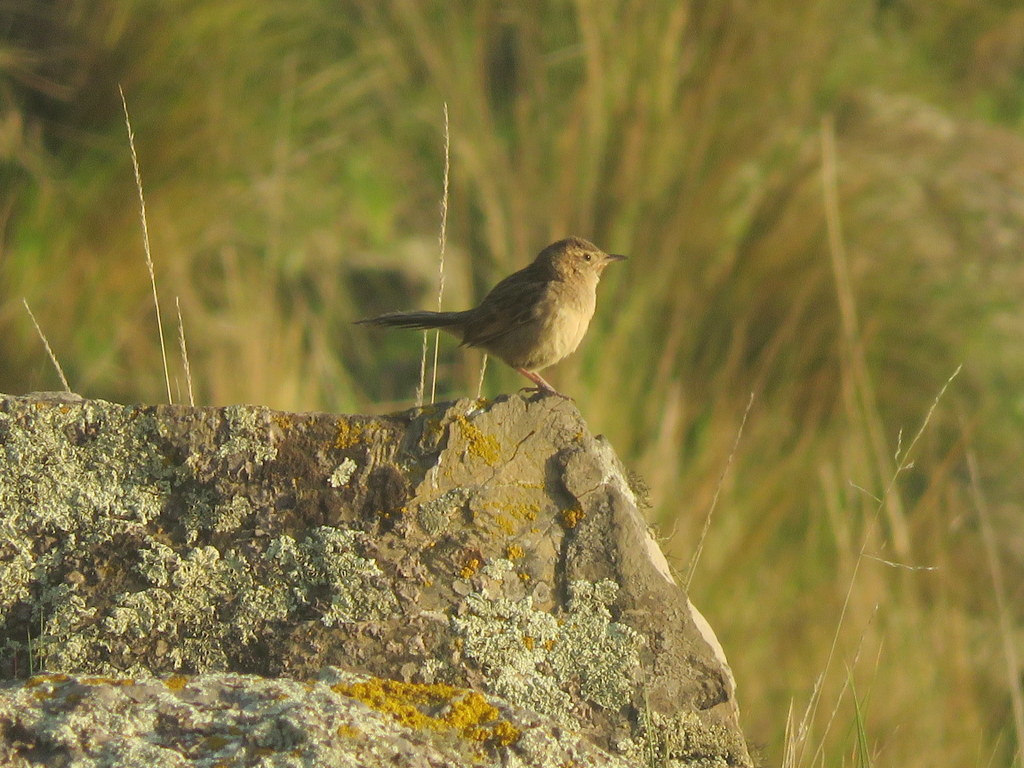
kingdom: Animalia
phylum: Chordata
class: Aves
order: Passeriformes
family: Furnariidae
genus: Asthenes
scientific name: Asthenes wyatti
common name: Streak-backed canastero
